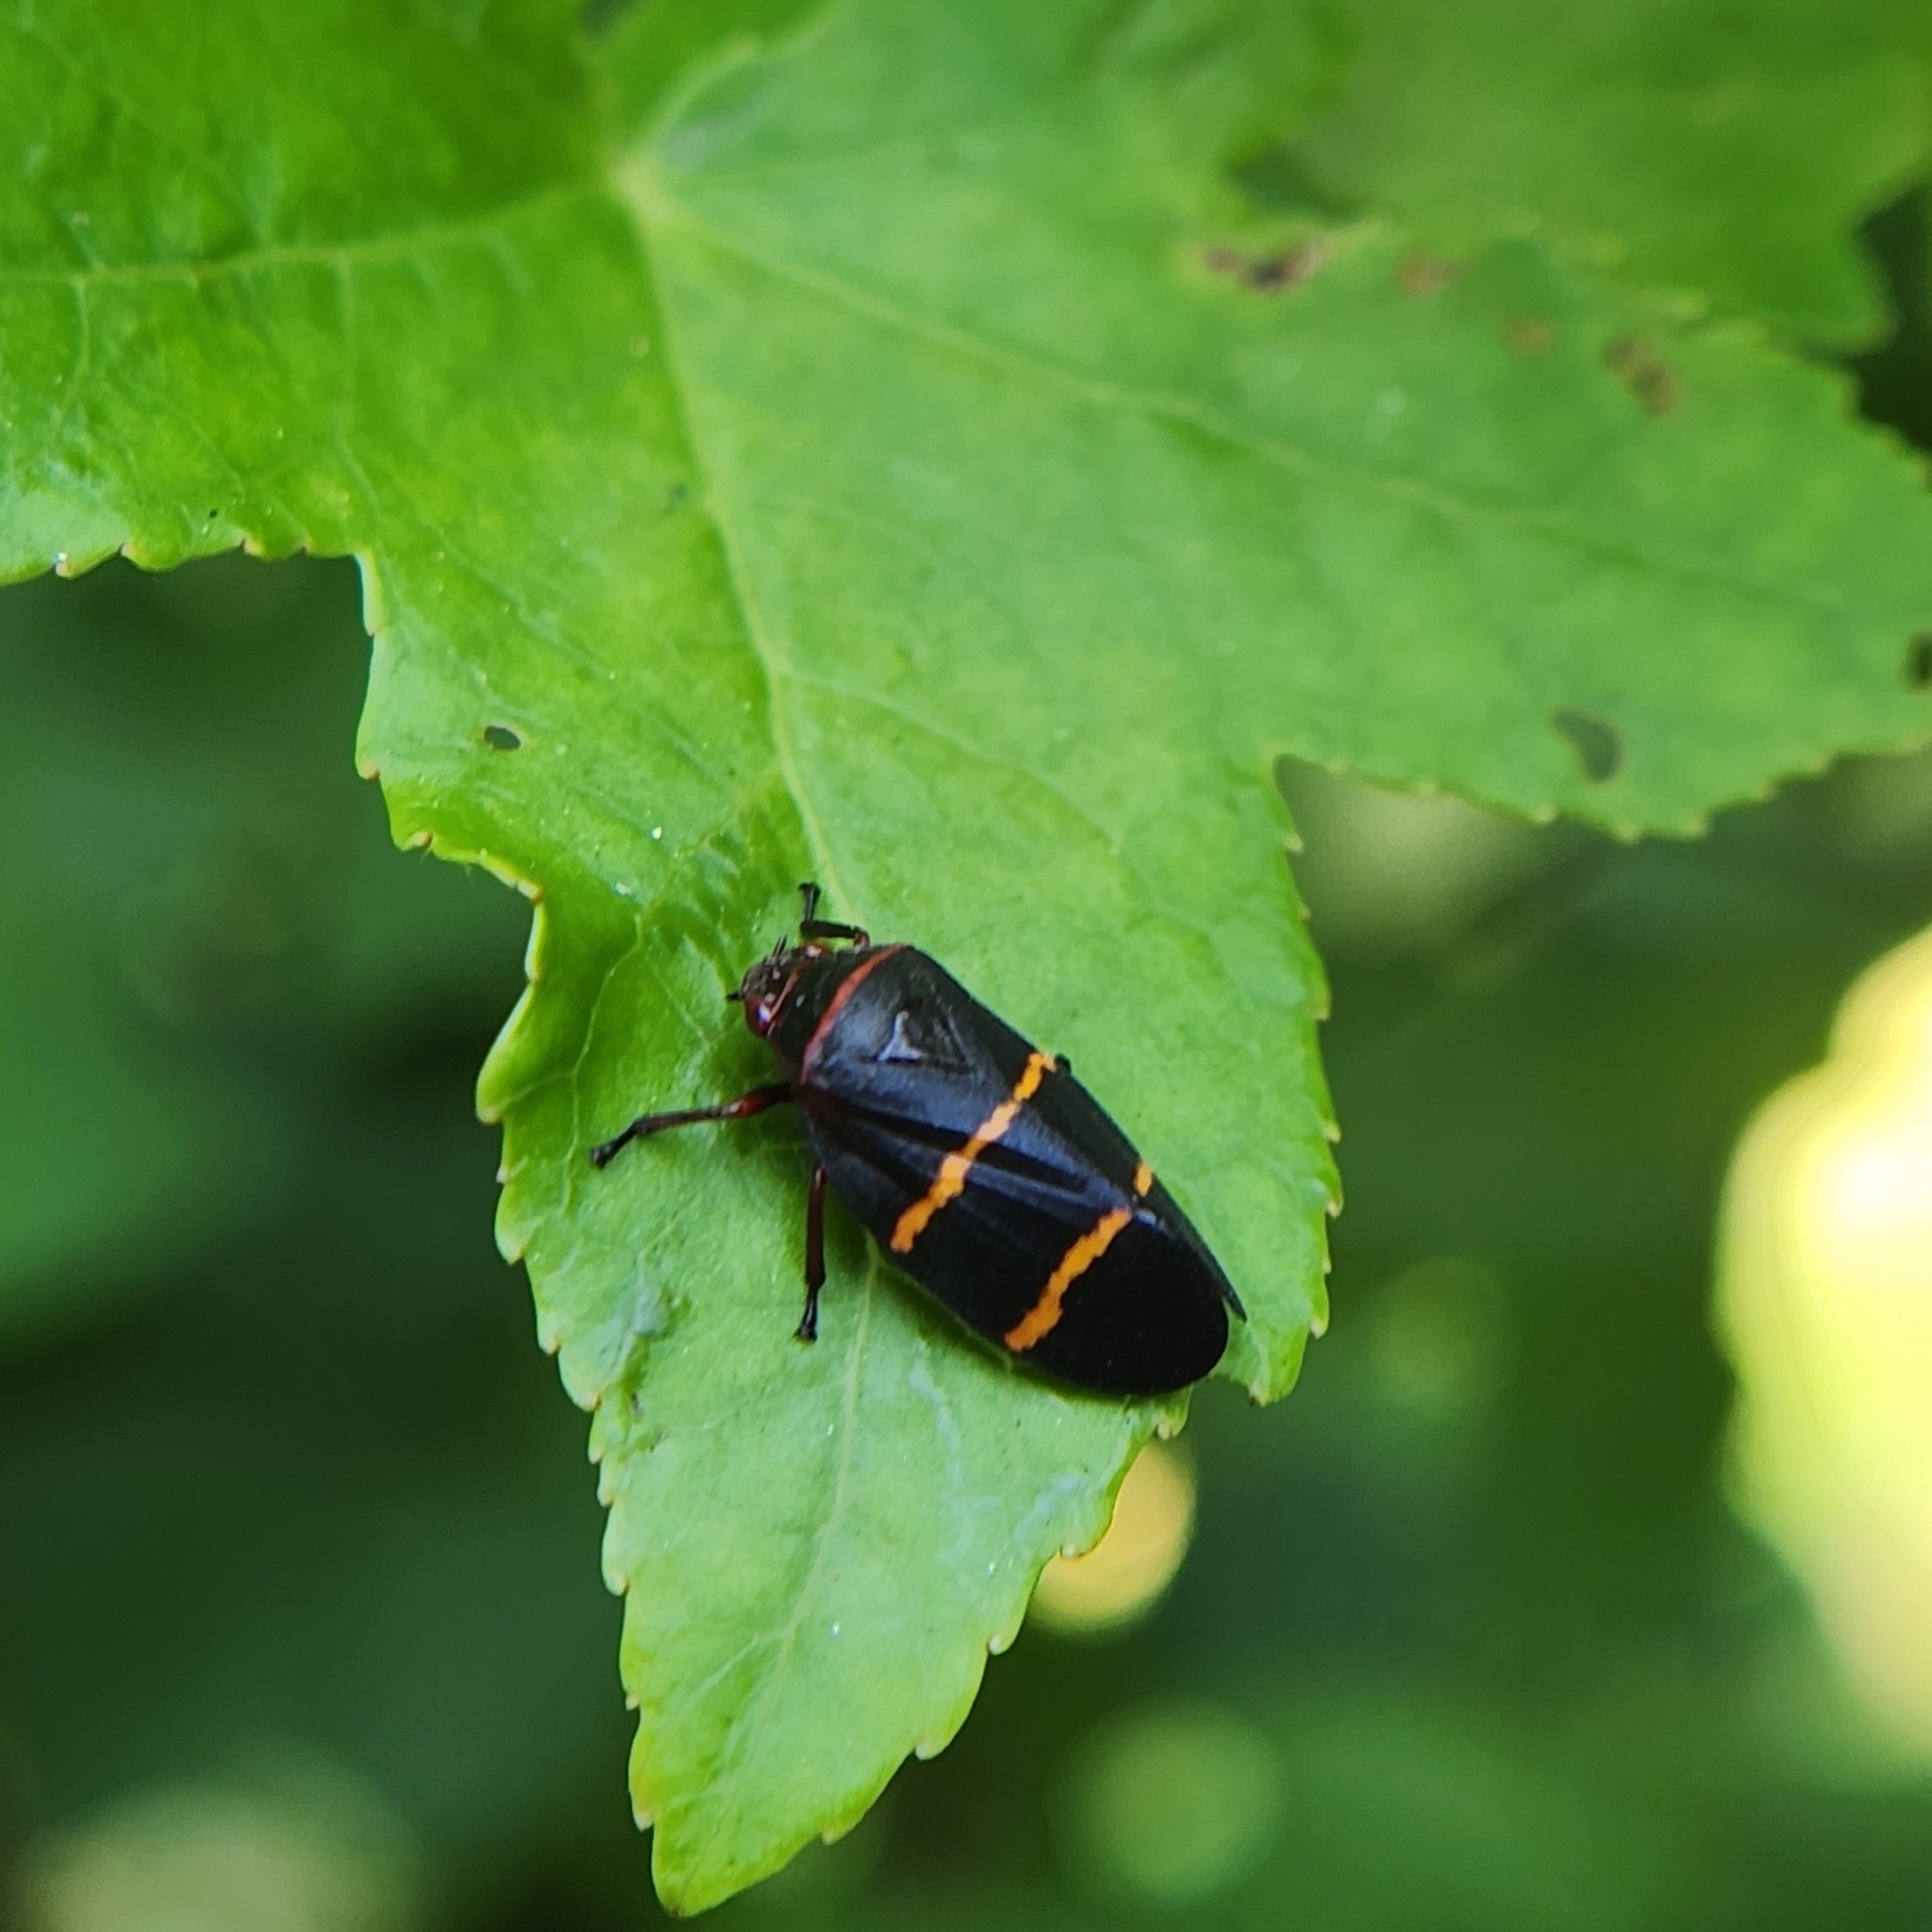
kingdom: Animalia
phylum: Arthropoda
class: Insecta
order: Hemiptera
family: Cercopidae
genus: Prosapia
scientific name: Prosapia bicincta
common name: Twolined spittlebug
